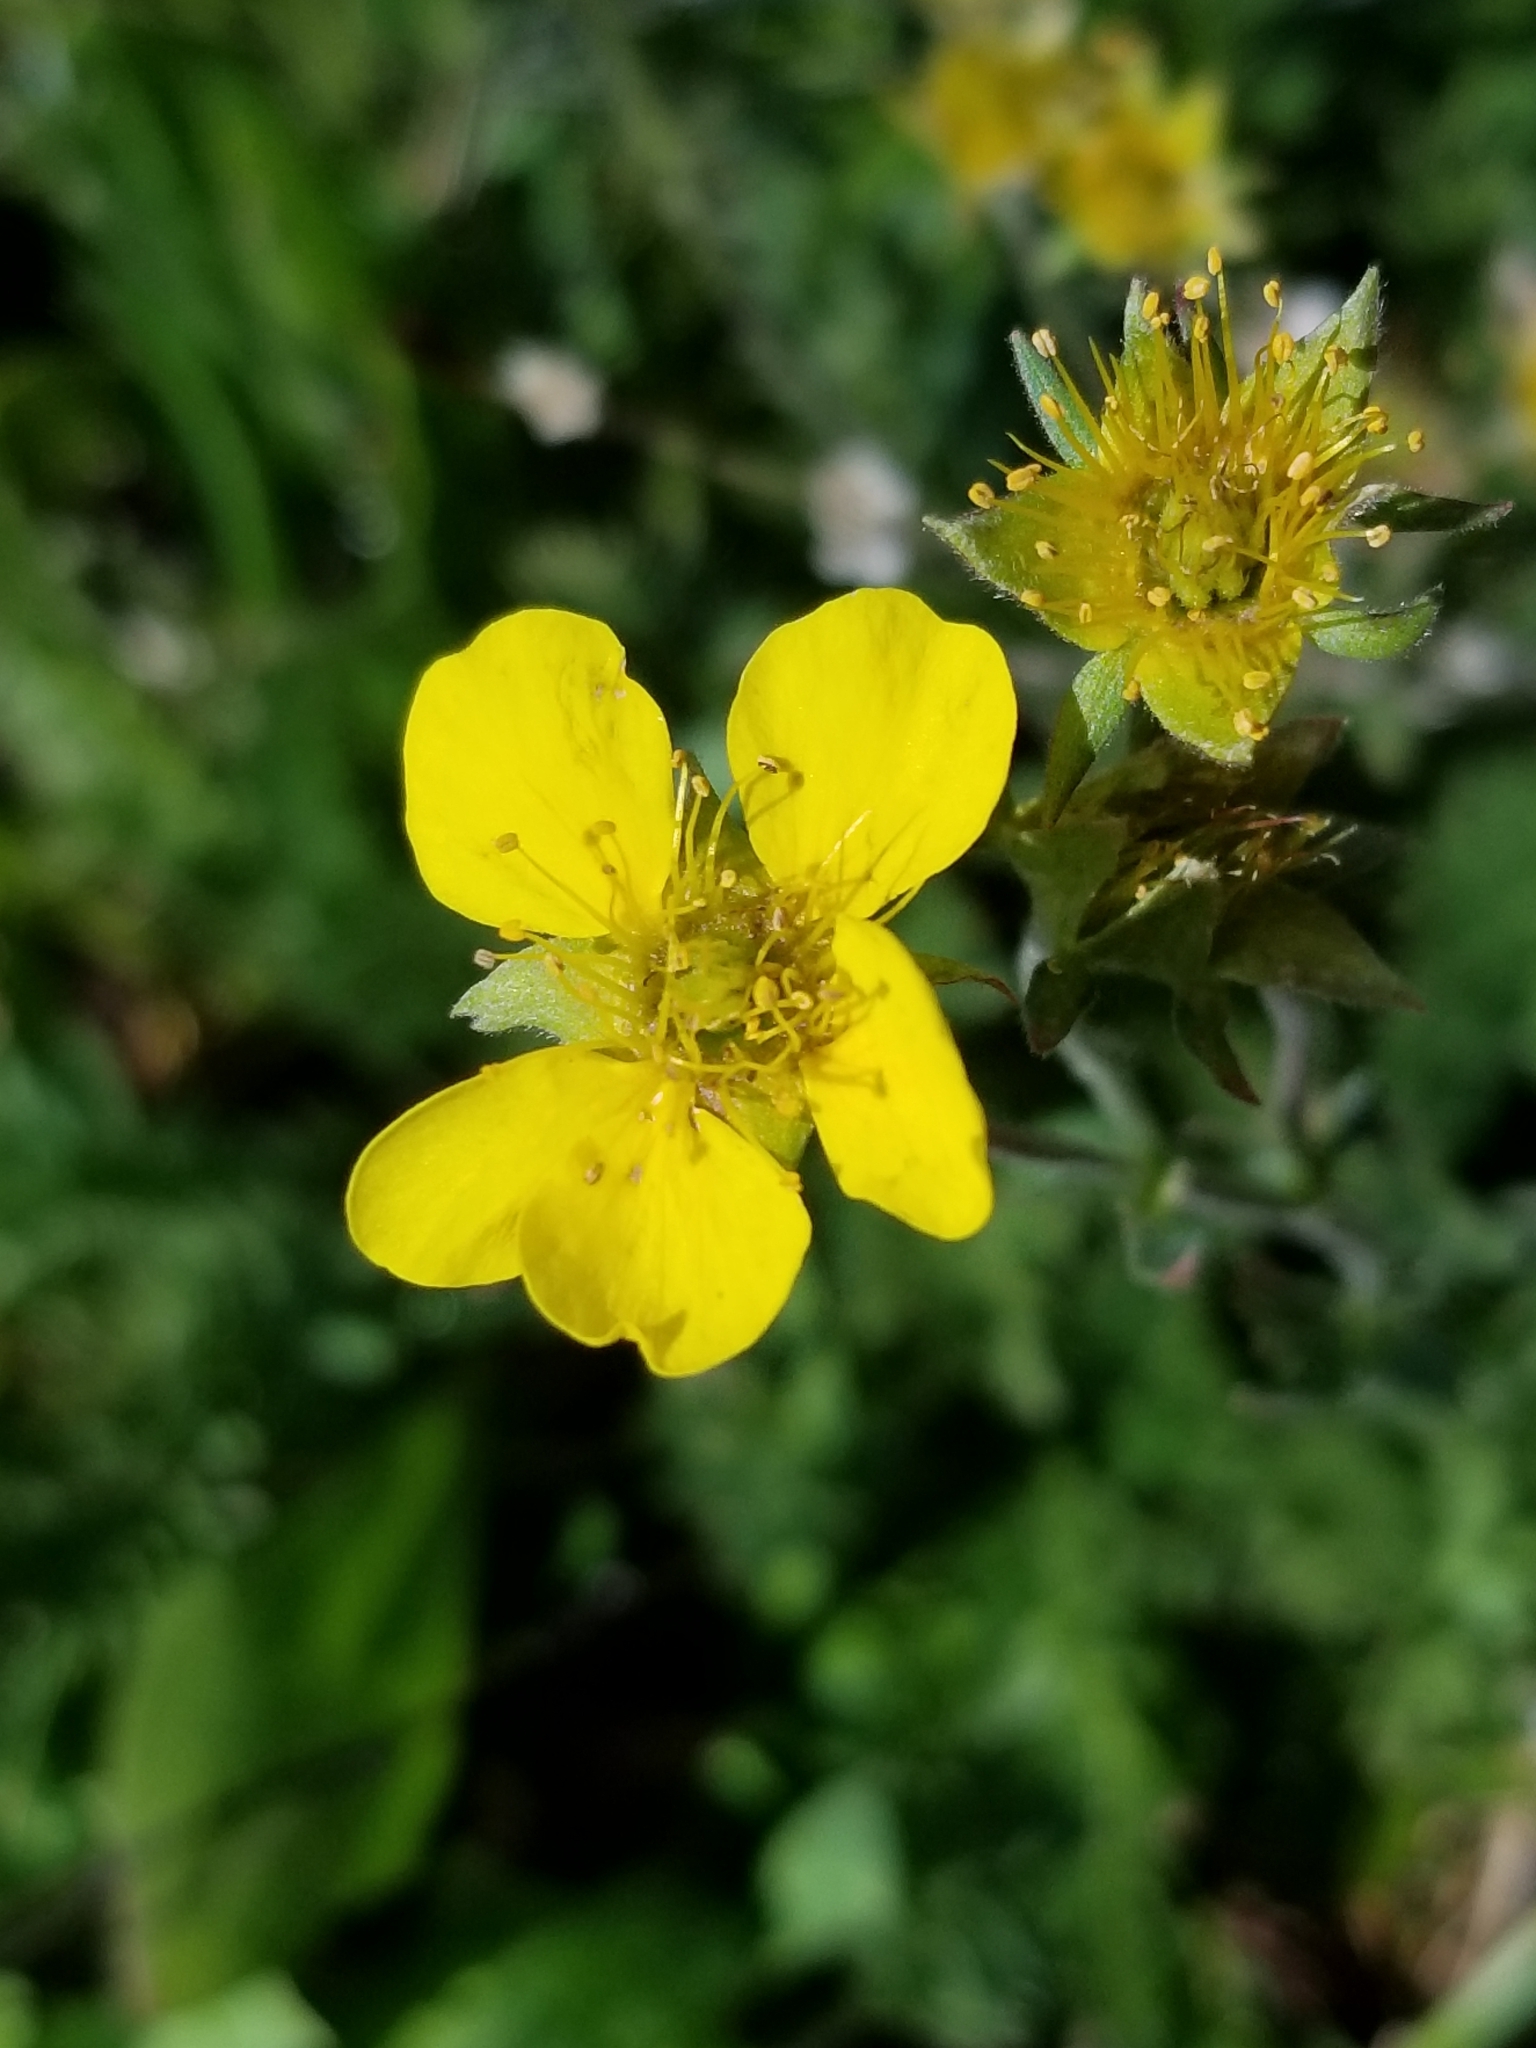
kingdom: Plantae
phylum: Tracheophyta
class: Magnoliopsida
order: Rosales
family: Rosaceae
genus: Geum
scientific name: Geum rossii
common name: Alpine avens
